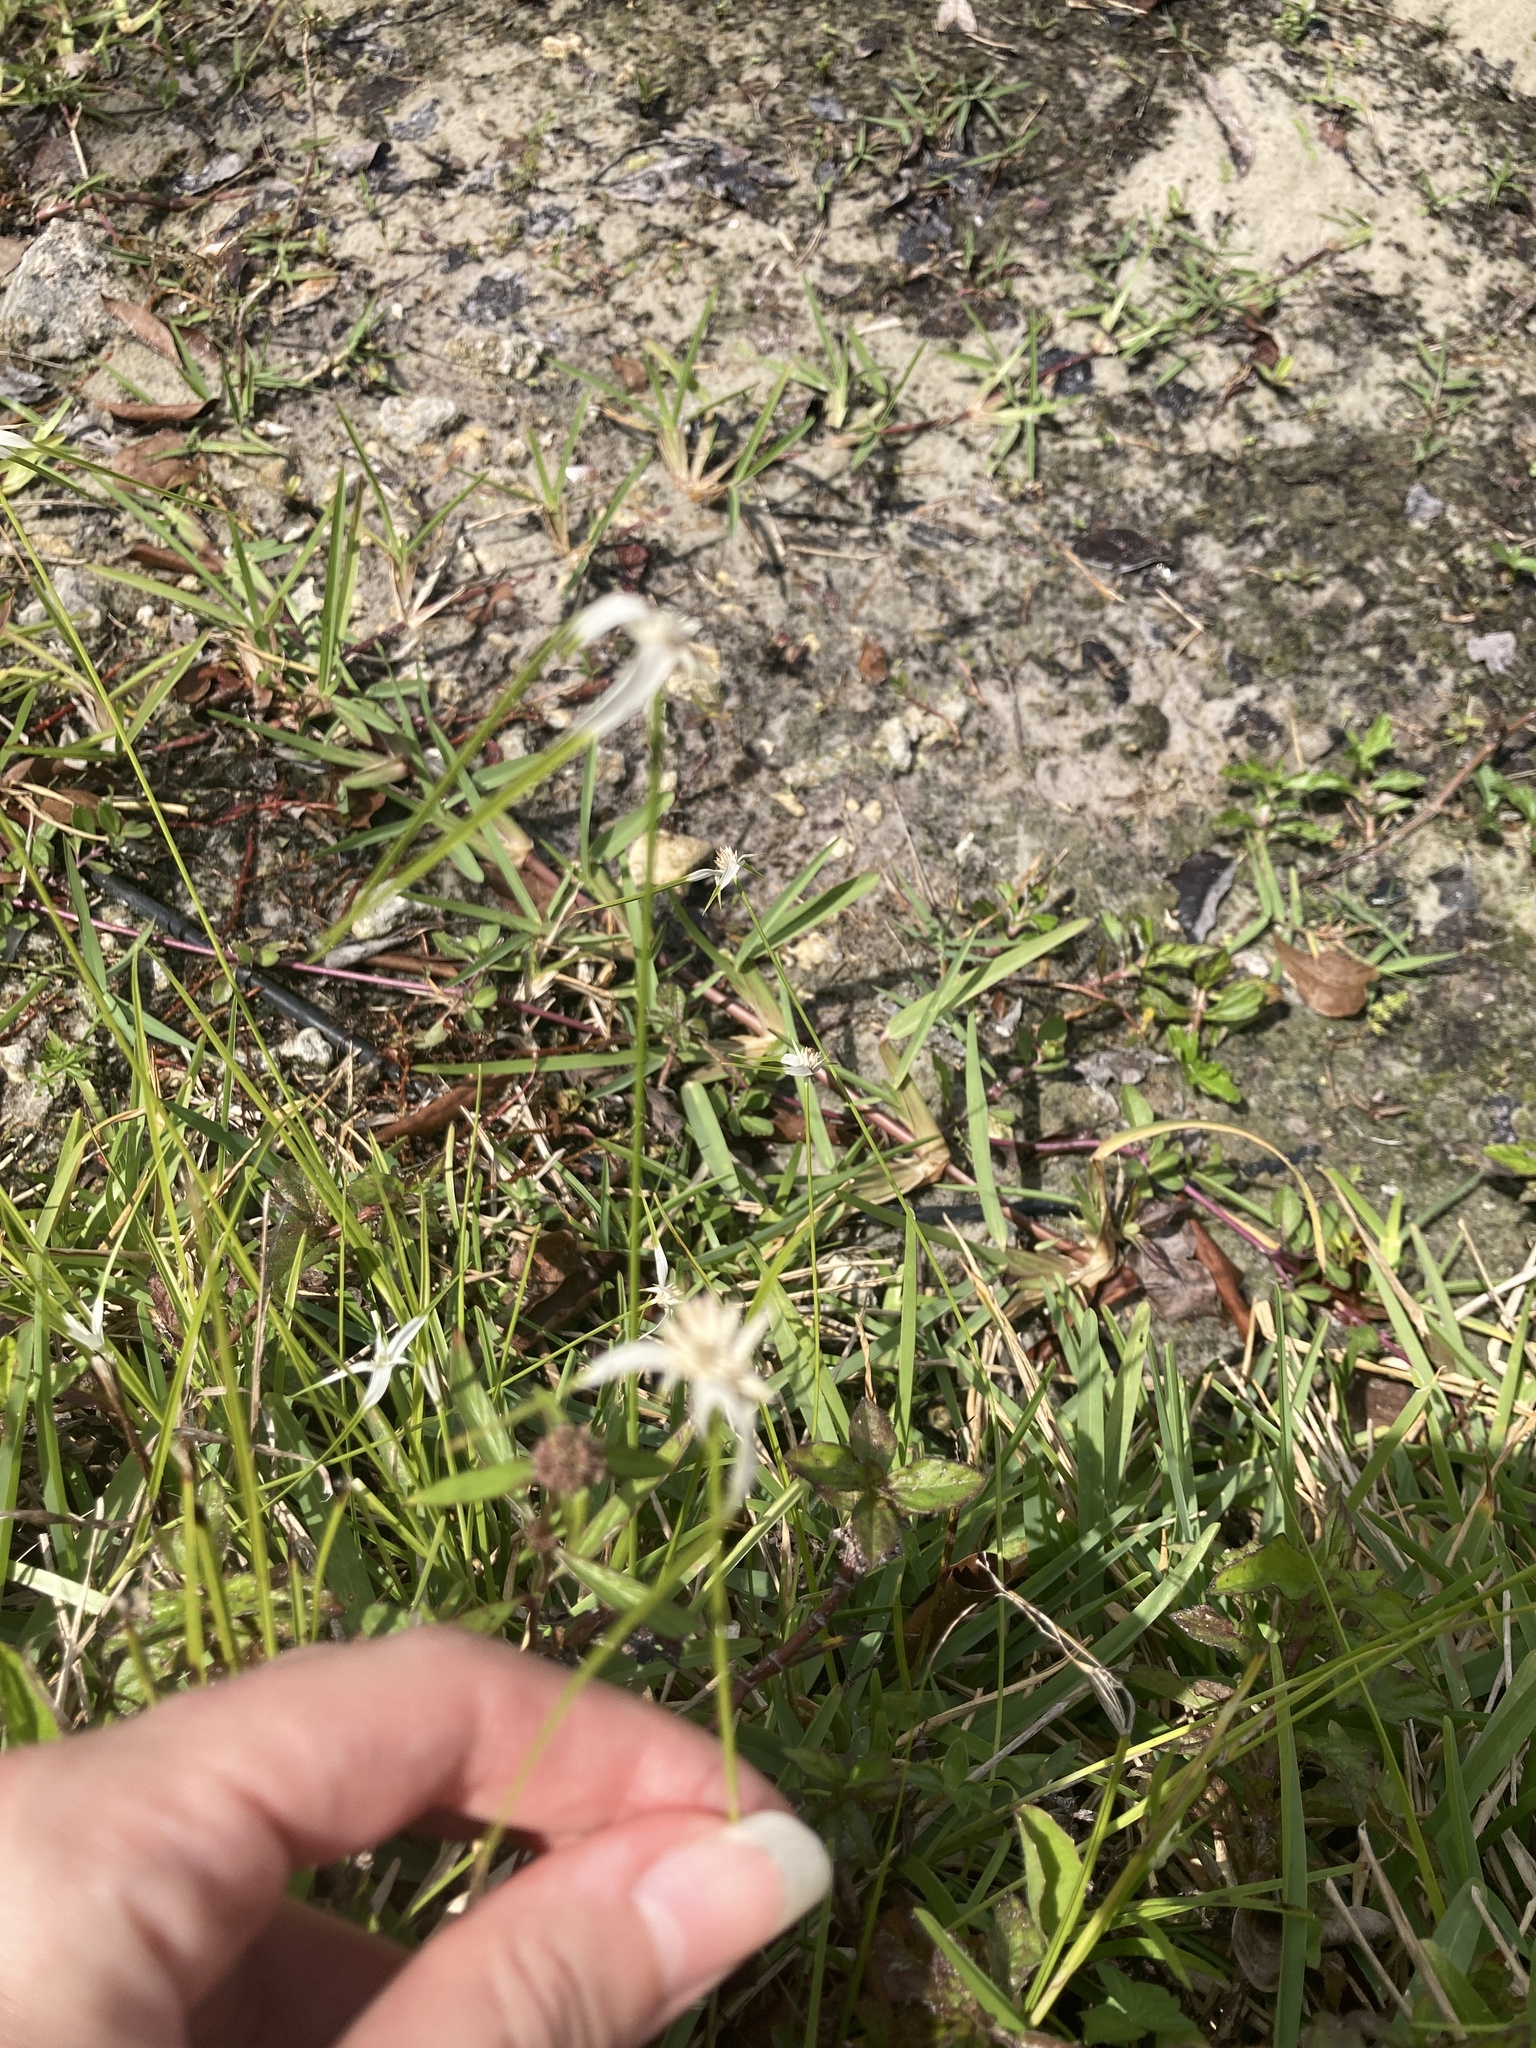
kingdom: Plantae
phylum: Tracheophyta
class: Liliopsida
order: Poales
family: Cyperaceae
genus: Rhynchospora
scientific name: Rhynchospora colorata
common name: Star sedge
